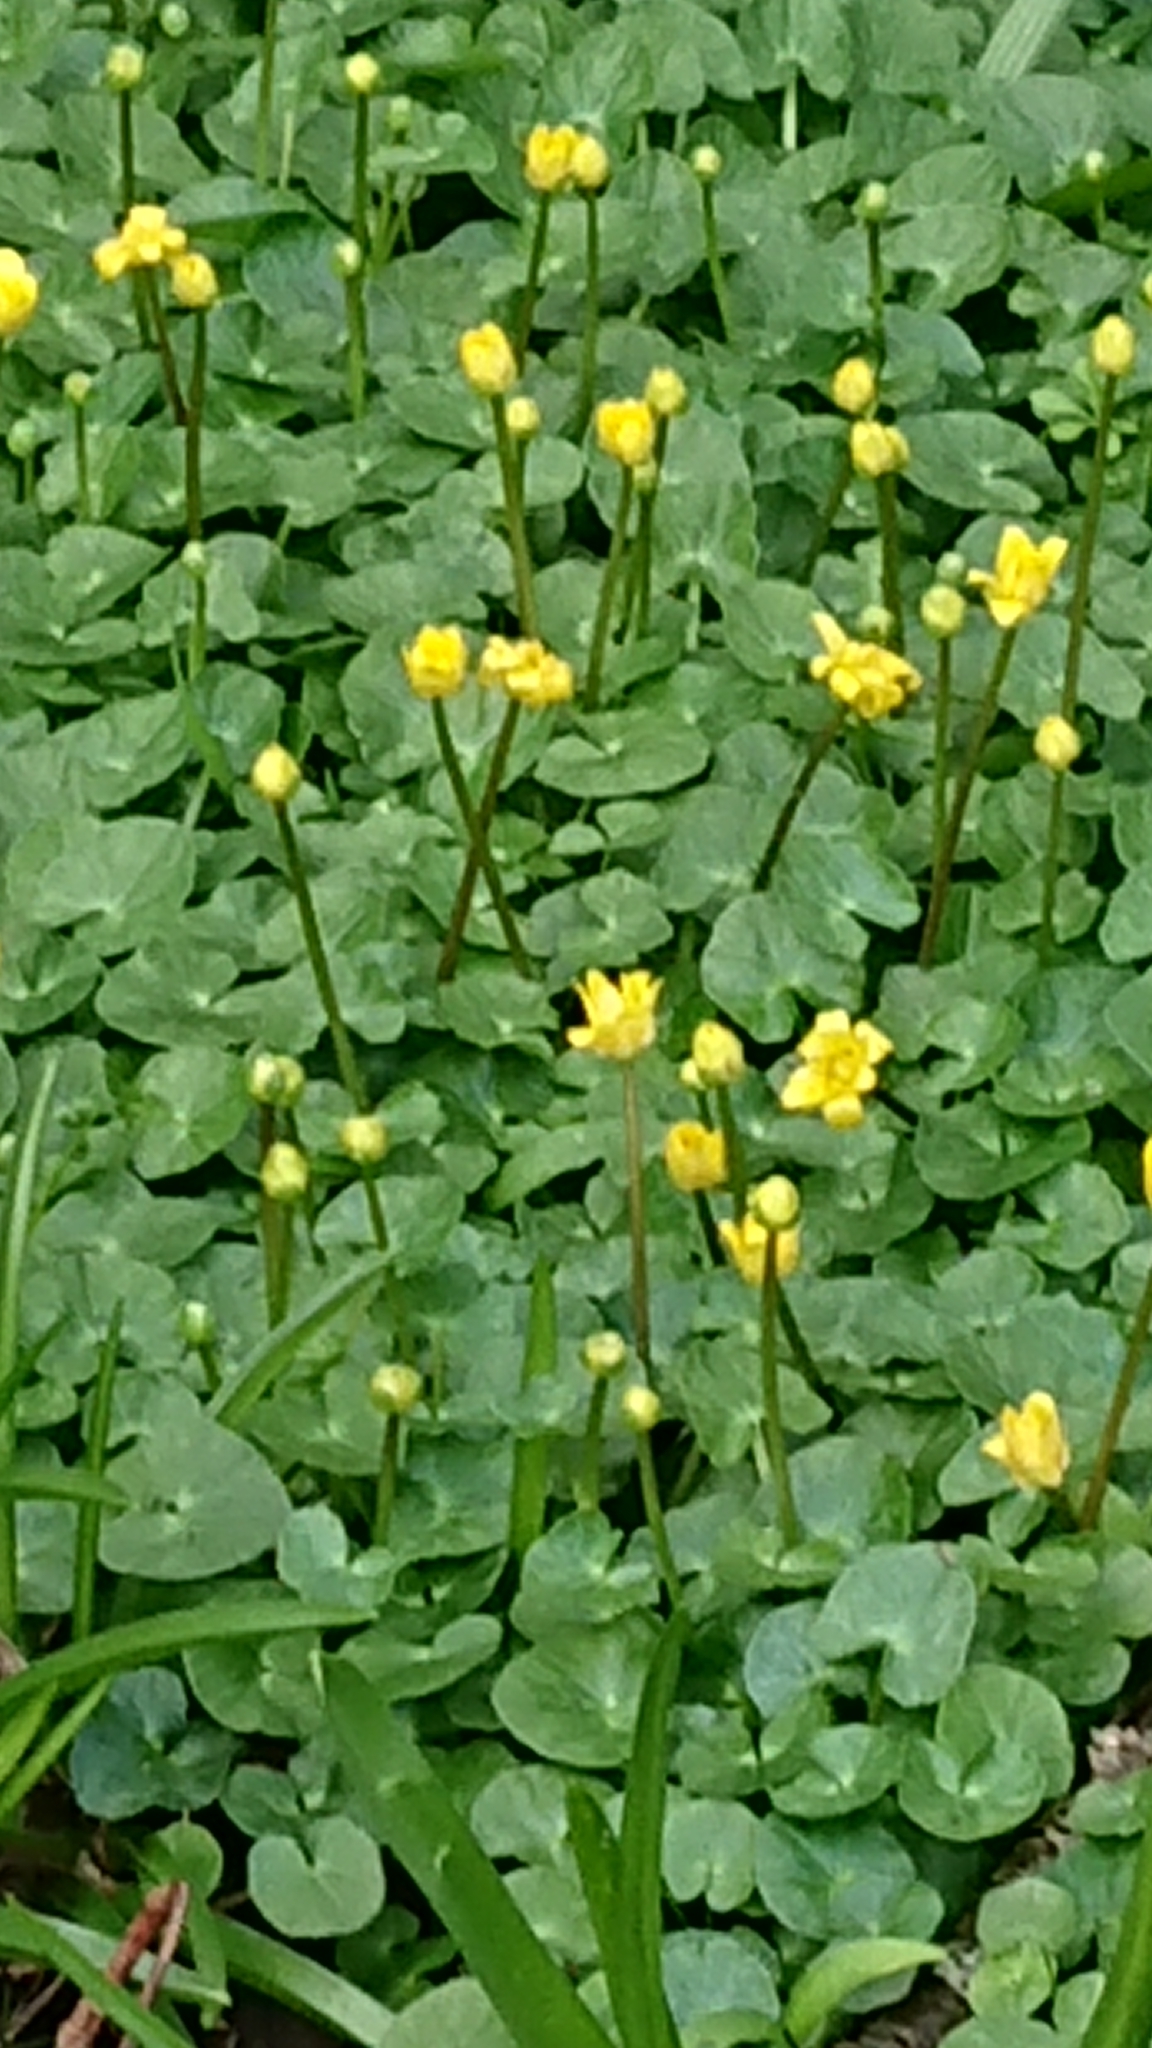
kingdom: Plantae
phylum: Tracheophyta
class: Magnoliopsida
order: Ranunculales
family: Ranunculaceae
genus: Ficaria
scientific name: Ficaria verna
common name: Lesser celandine
